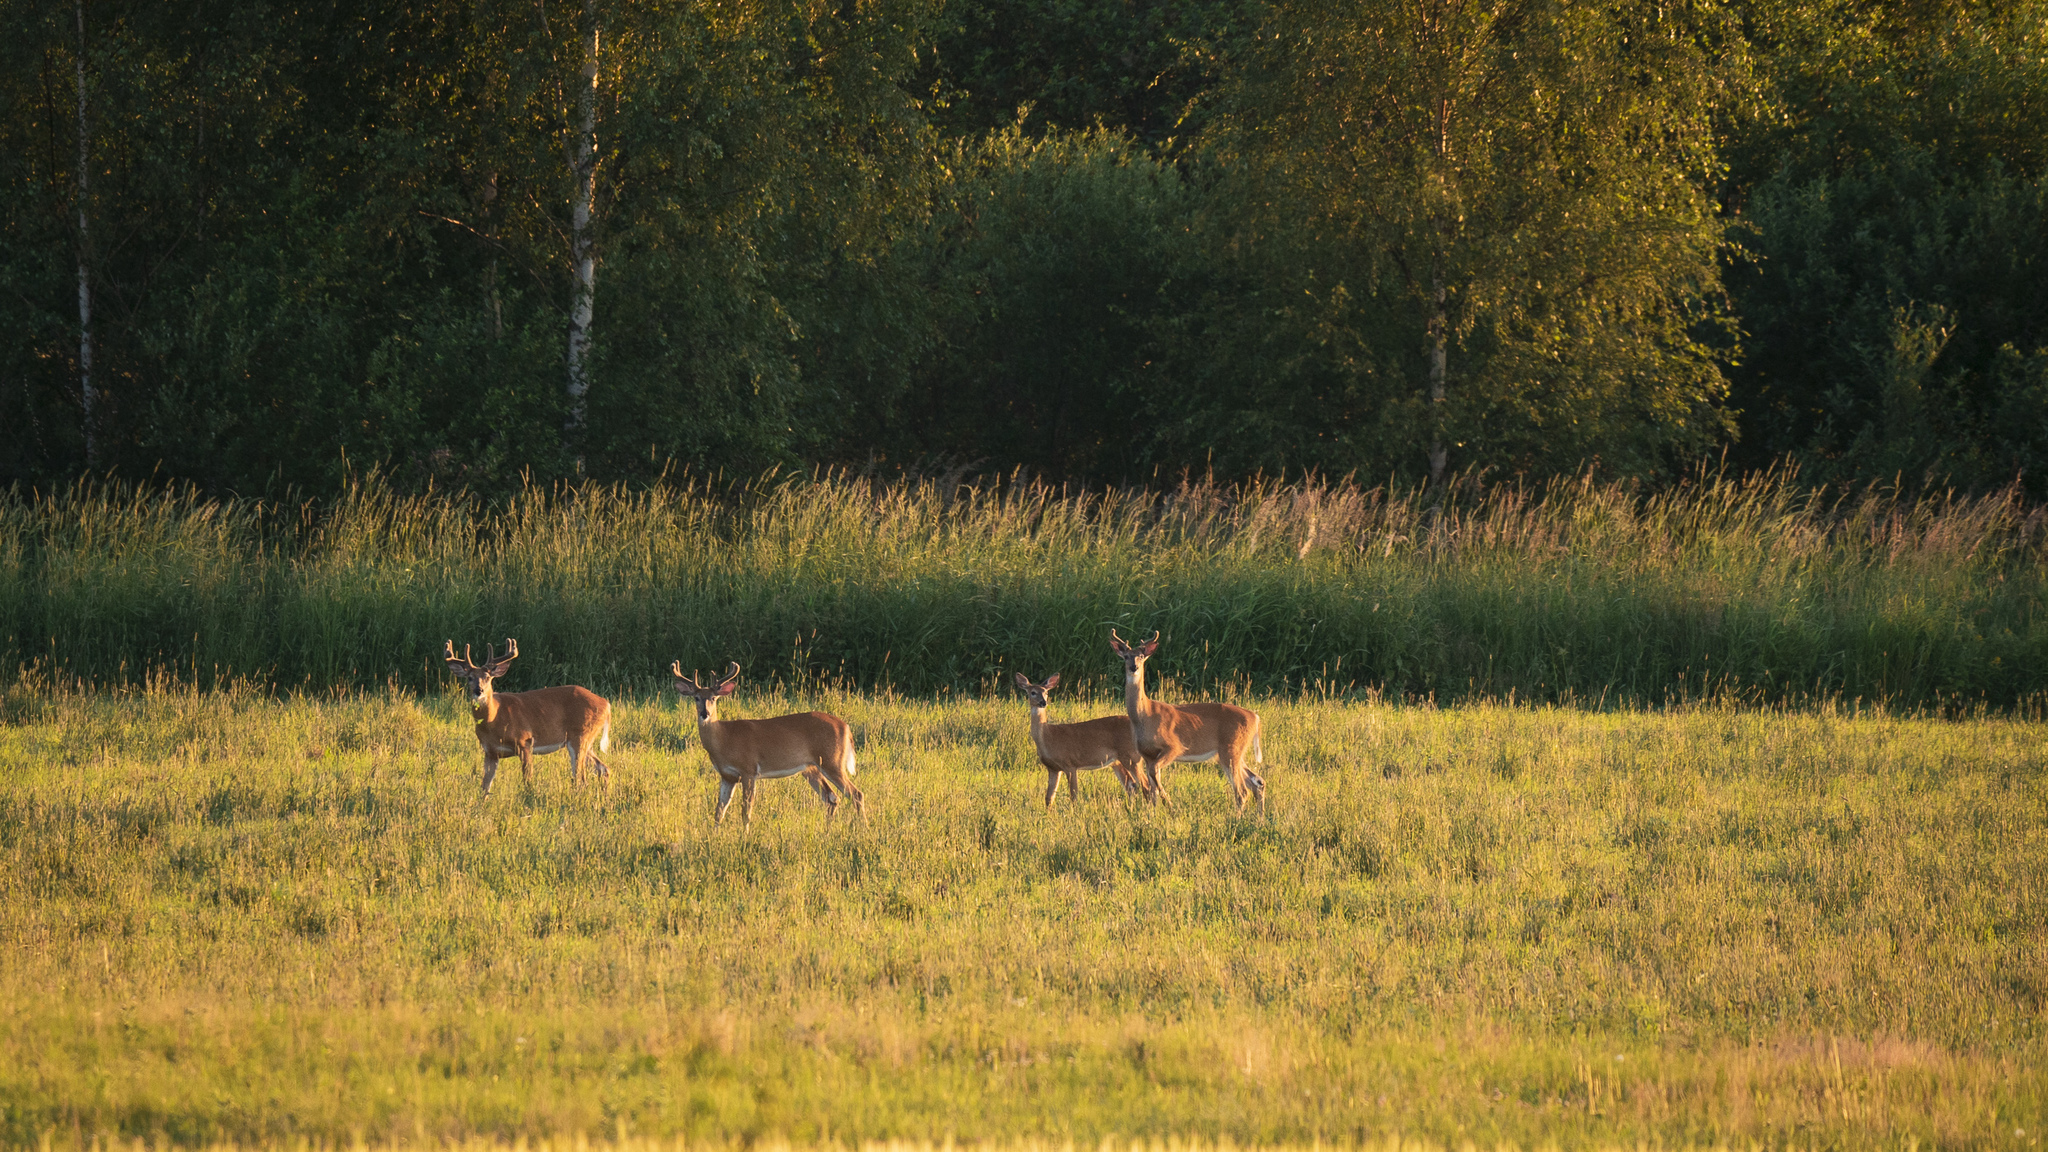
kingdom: Animalia
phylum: Chordata
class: Mammalia
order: Artiodactyla
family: Cervidae
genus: Odocoileus
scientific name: Odocoileus virginianus
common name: White-tailed deer
